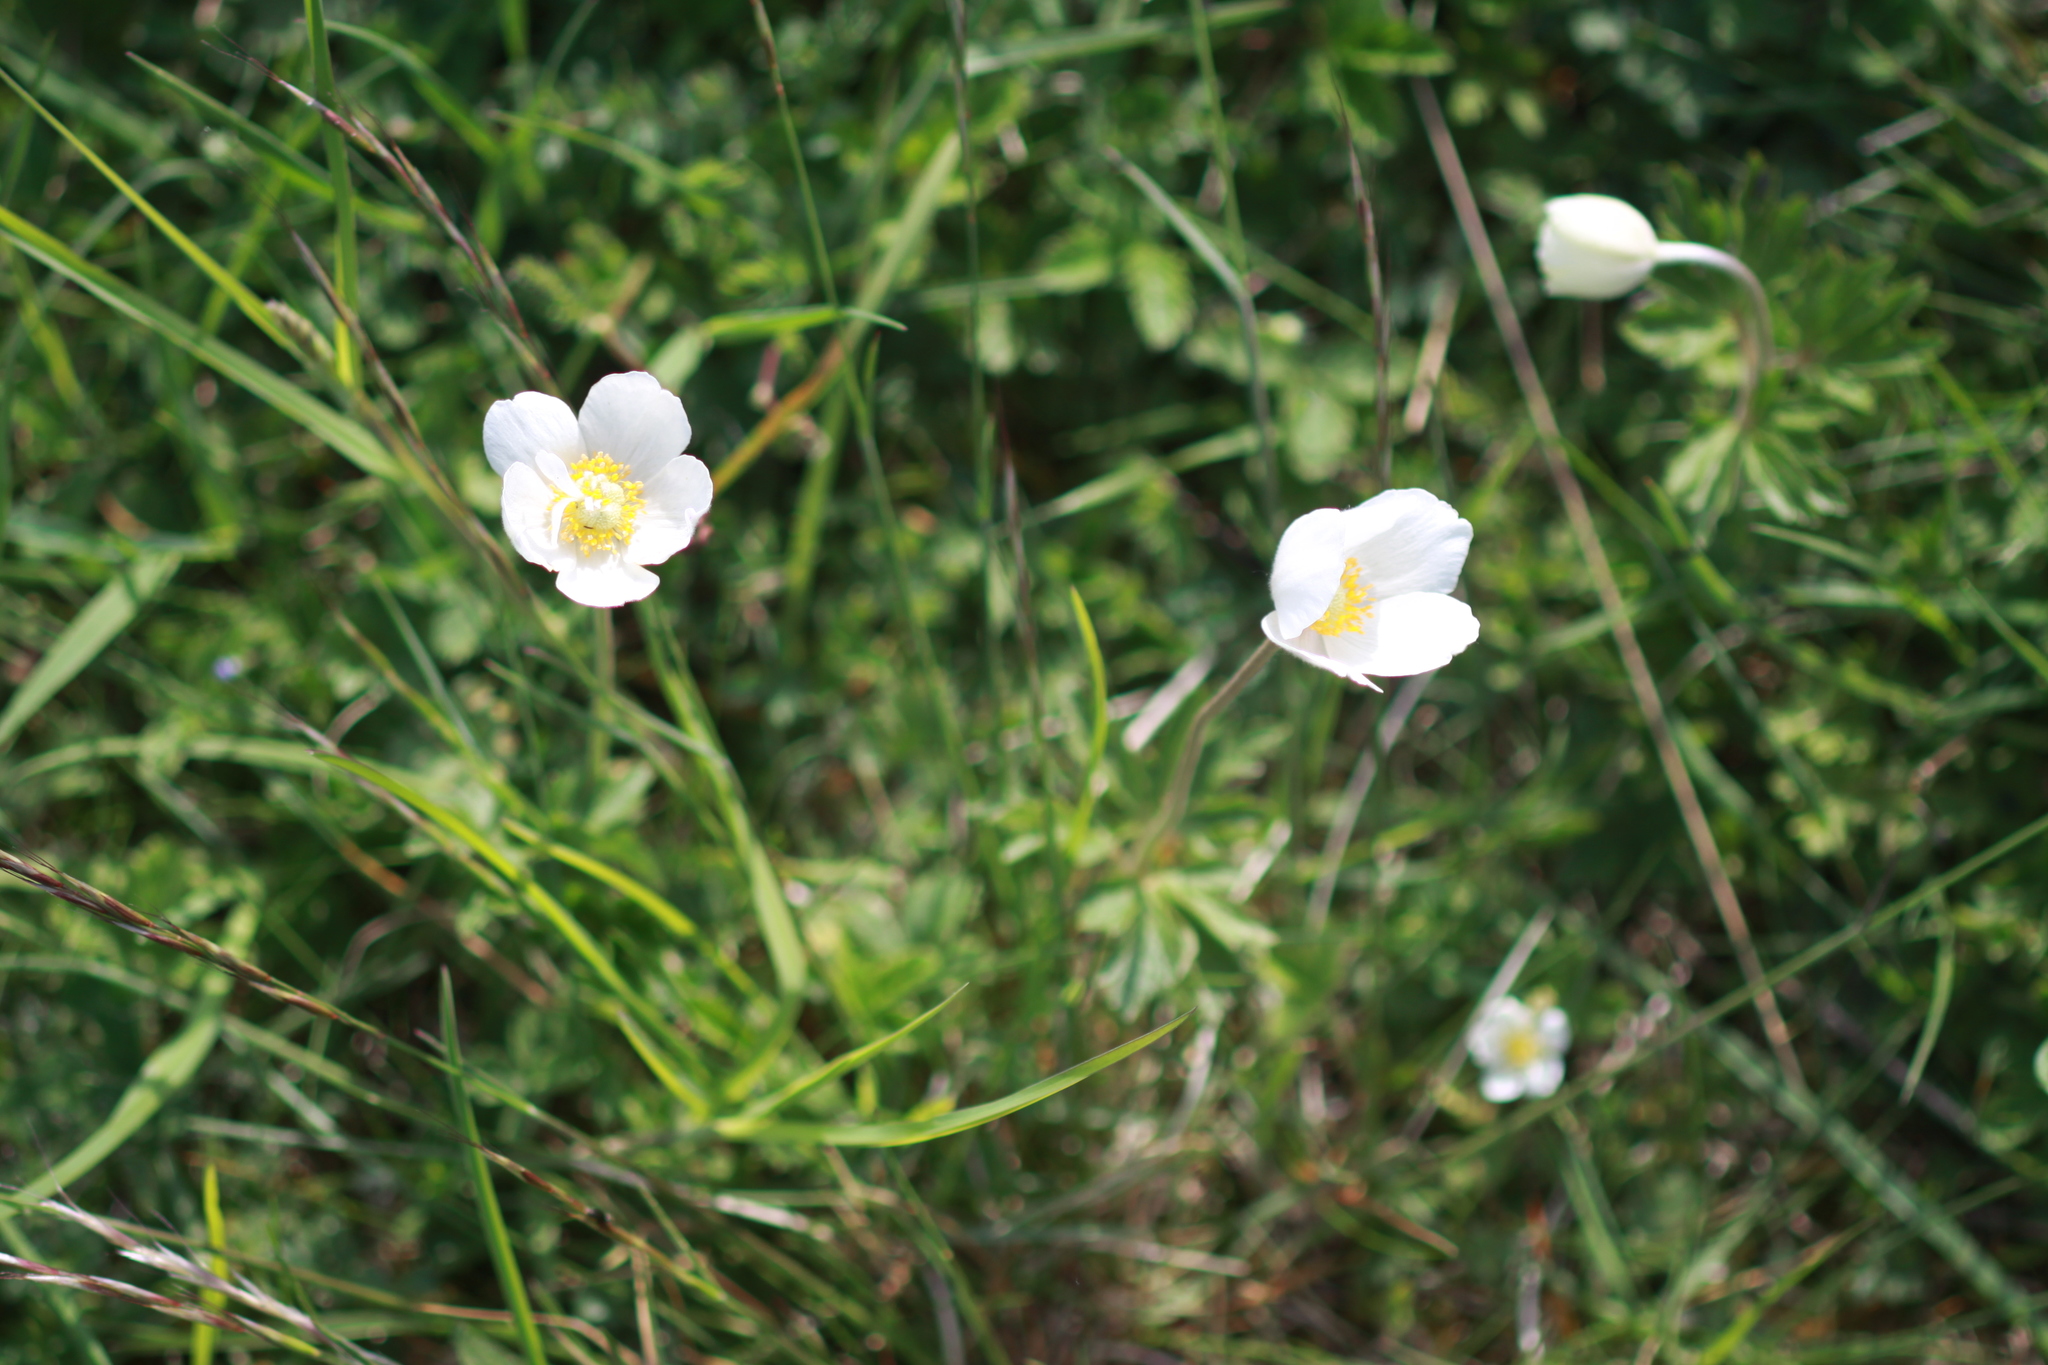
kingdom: Plantae
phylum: Tracheophyta
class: Magnoliopsida
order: Ranunculales
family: Ranunculaceae
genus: Anemone
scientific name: Anemone sylvestris
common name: Snowdrop anemone
